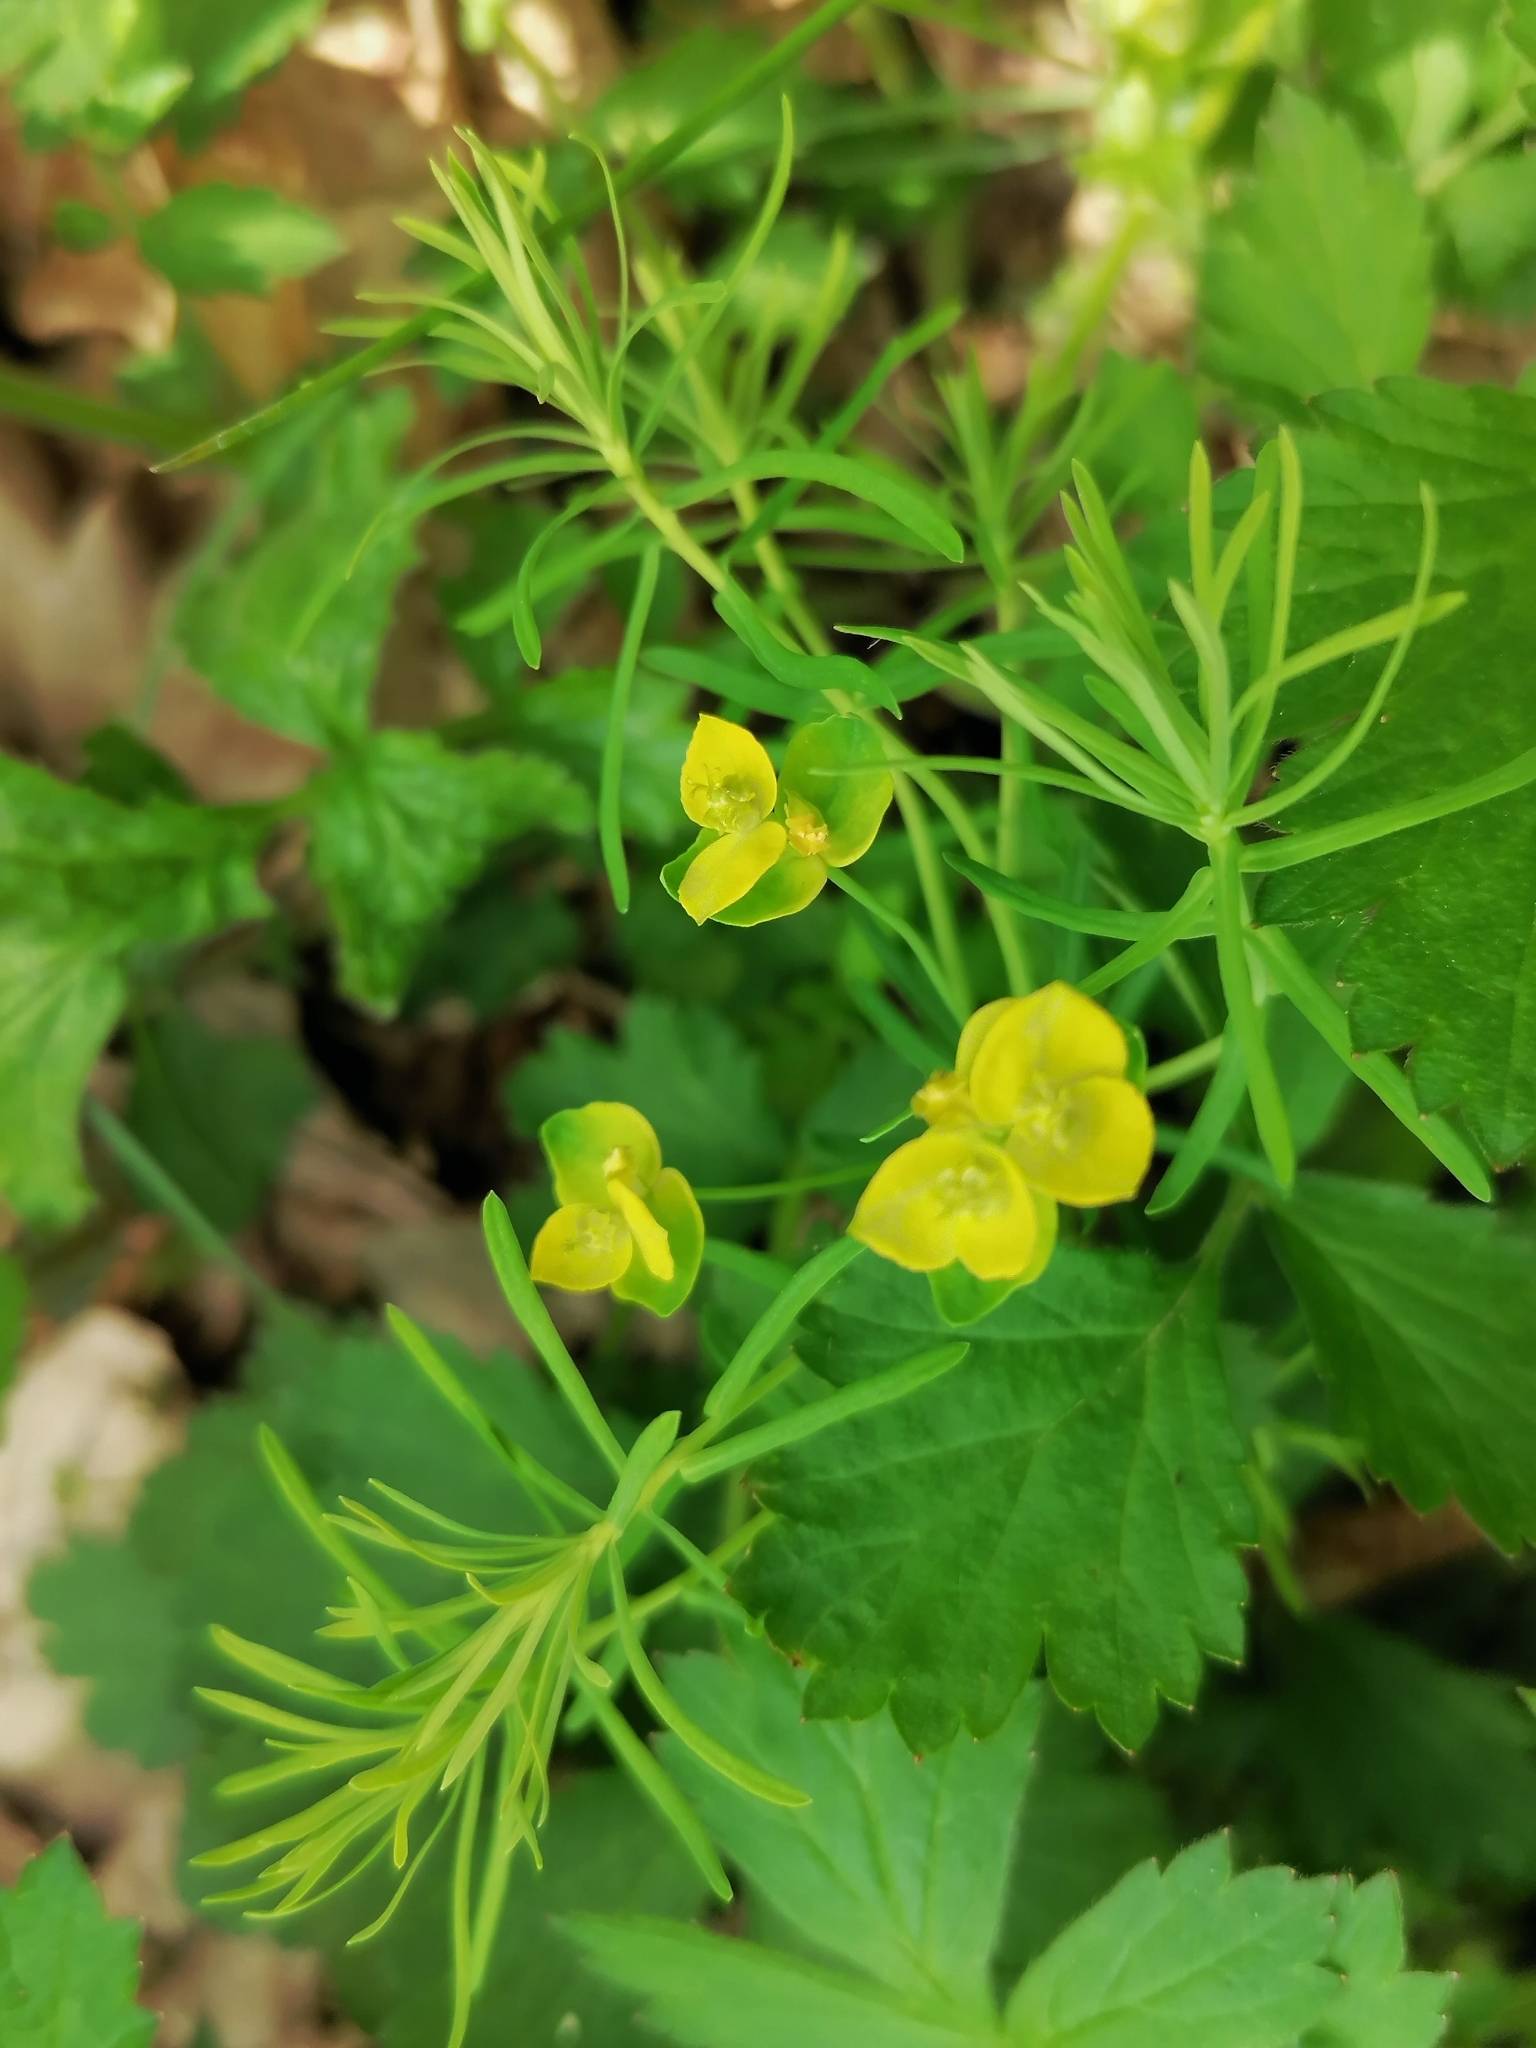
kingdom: Plantae
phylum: Tracheophyta
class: Magnoliopsida
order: Malpighiales
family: Euphorbiaceae
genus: Euphorbia
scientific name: Euphorbia cyparissias
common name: Cypress spurge
